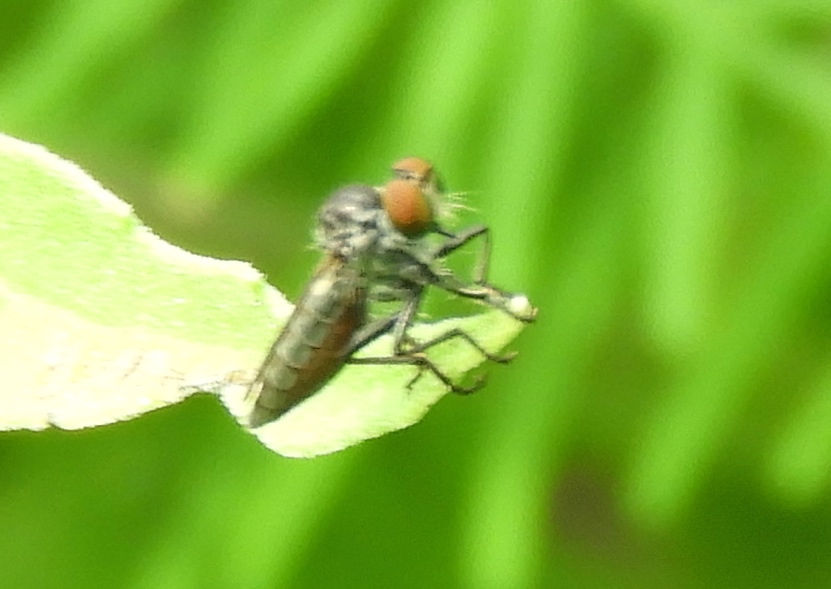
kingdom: Animalia
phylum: Arthropoda
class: Insecta
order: Diptera
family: Asilidae
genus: Ommatius
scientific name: Ommatius
